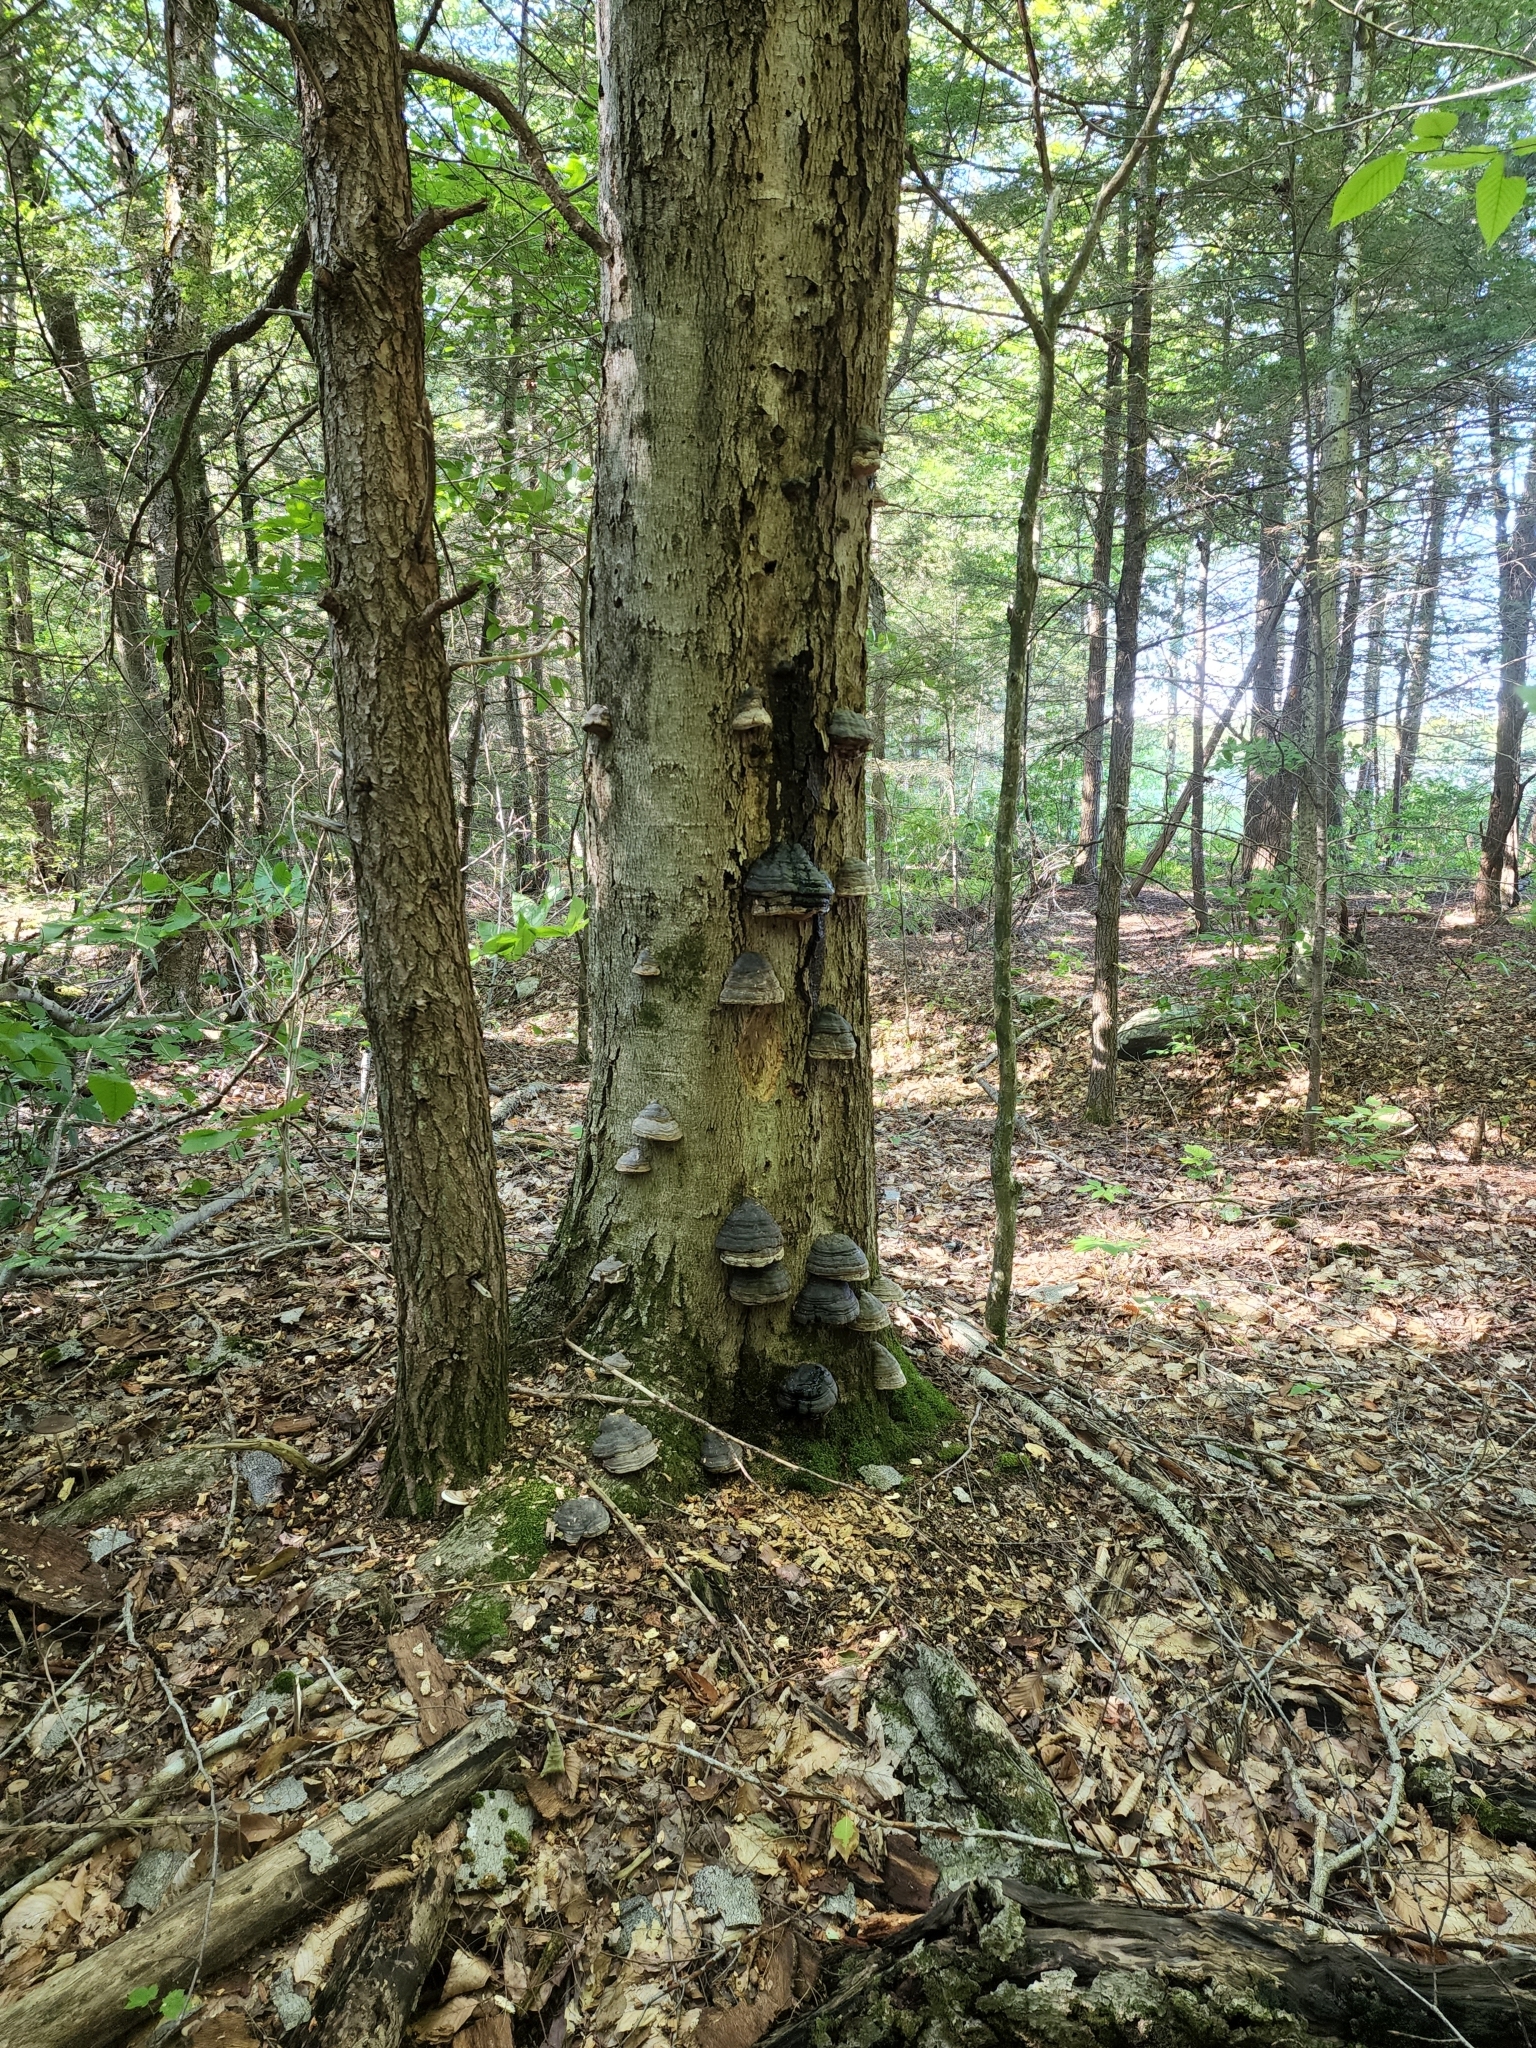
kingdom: Fungi
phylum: Basidiomycota
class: Agaricomycetes
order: Polyporales
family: Polyporaceae
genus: Fomes
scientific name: Fomes fomentarius
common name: Hoof fungus
